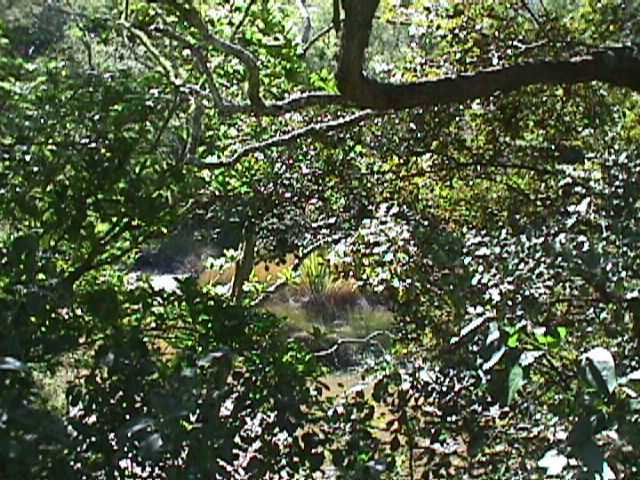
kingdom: Plantae
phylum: Tracheophyta
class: Liliopsida
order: Poales
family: Restionaceae
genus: Apodasmia
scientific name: Apodasmia similis
